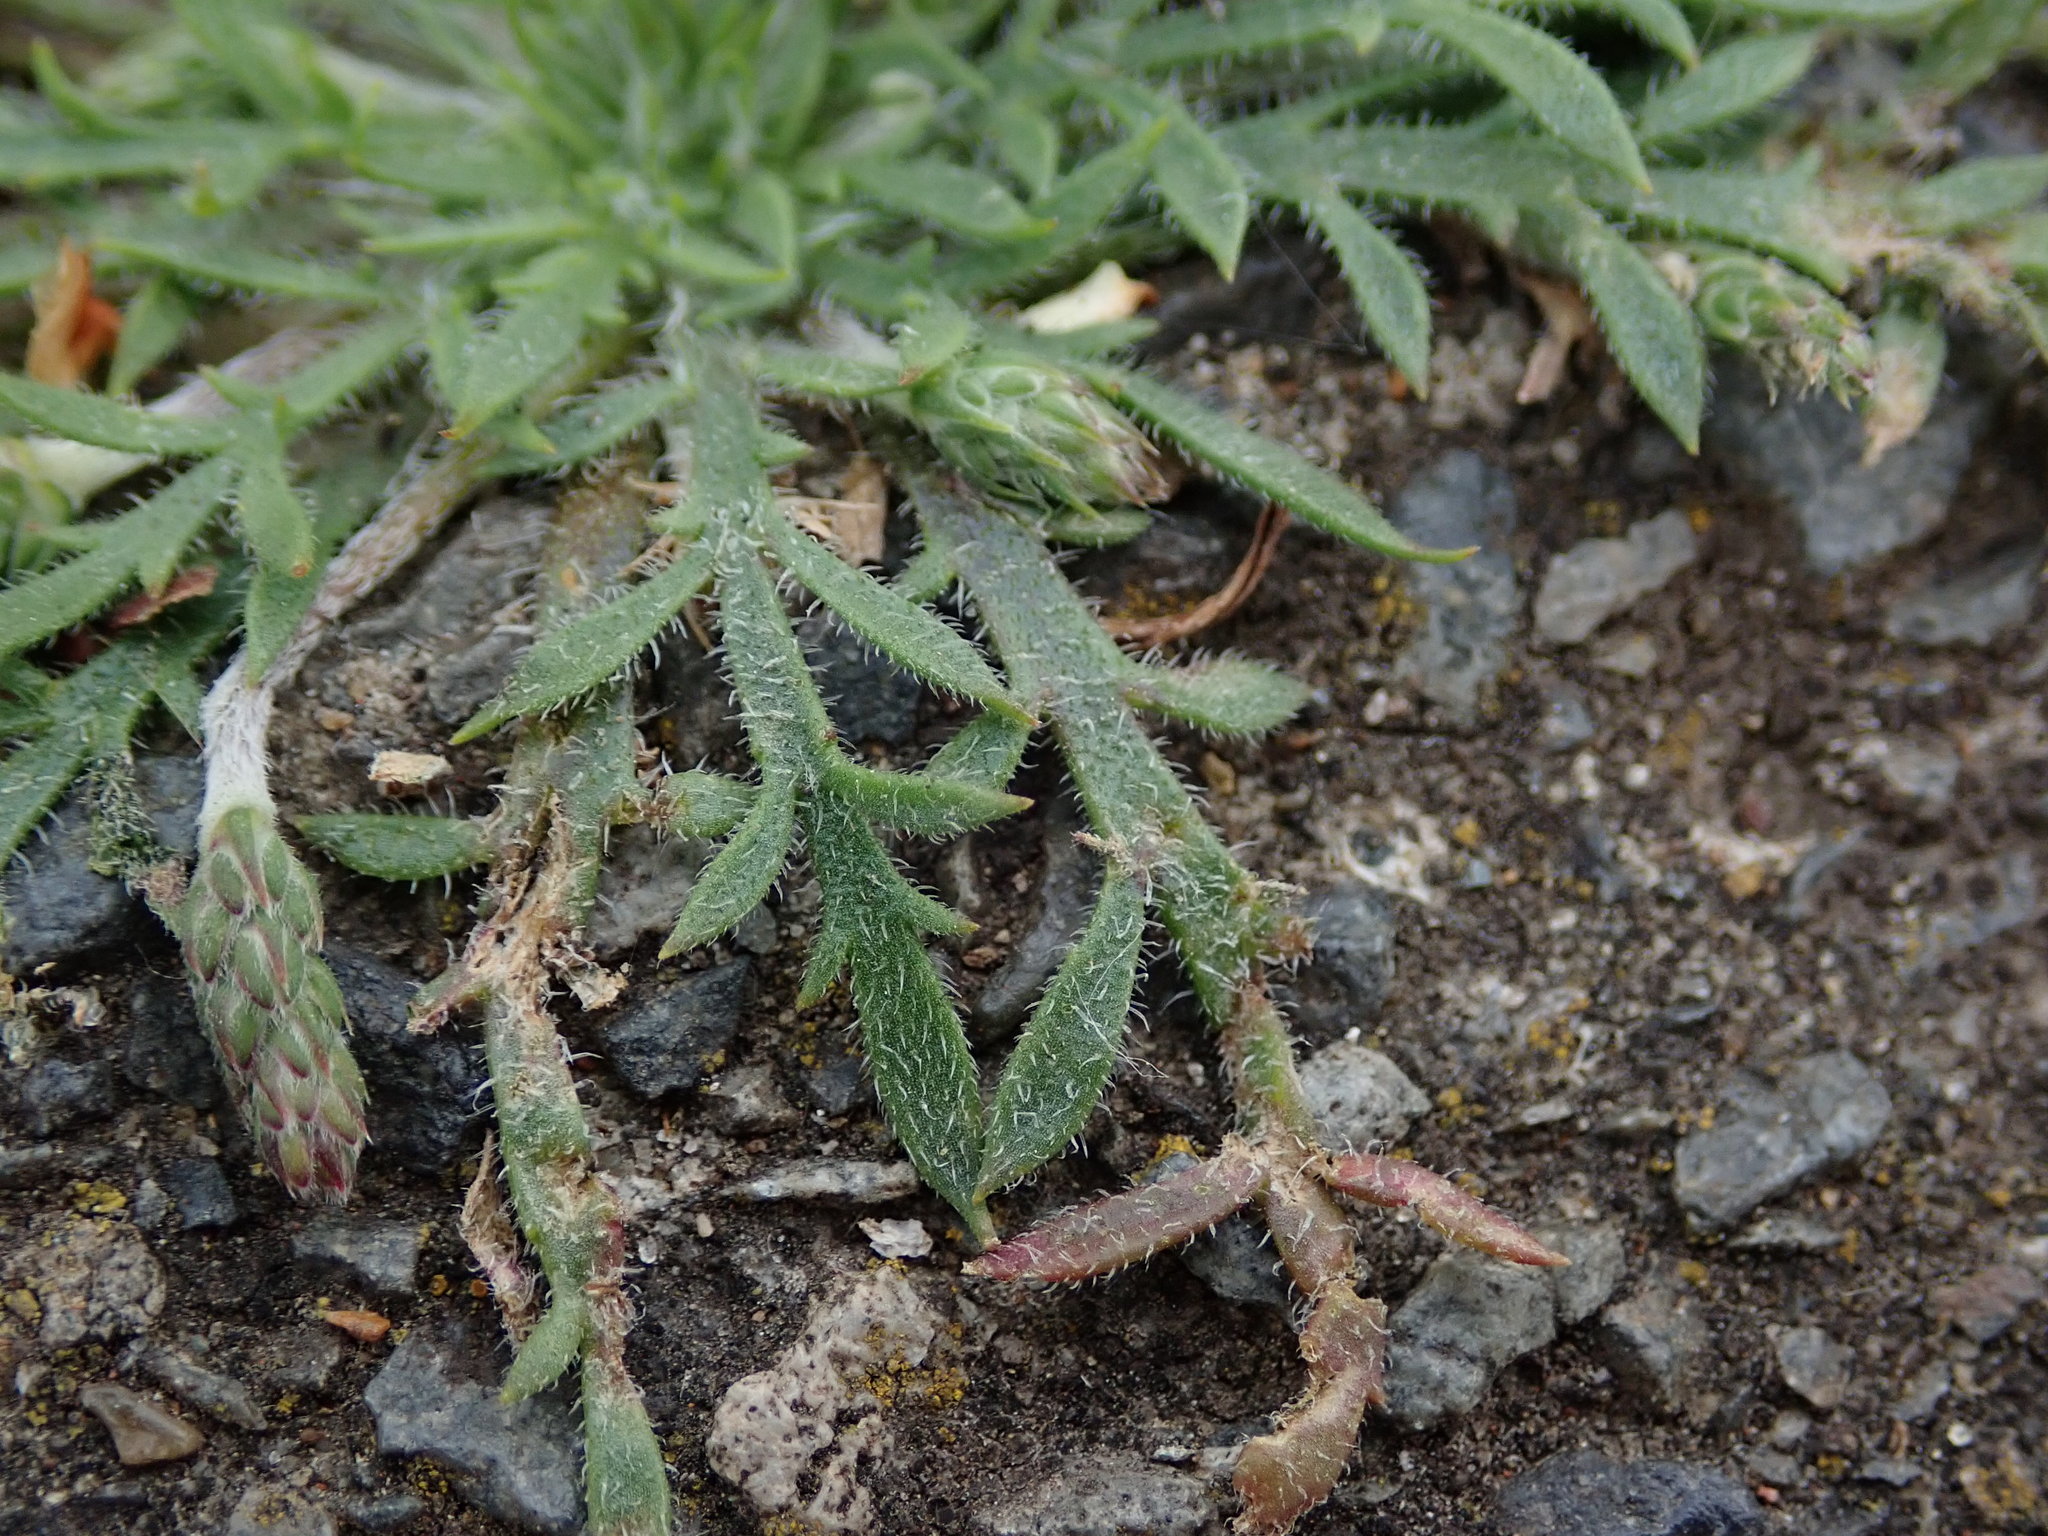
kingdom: Plantae
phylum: Tracheophyta
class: Magnoliopsida
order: Lamiales
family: Plantaginaceae
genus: Plantago
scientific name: Plantago coronopus
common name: Buck's-horn plantain
